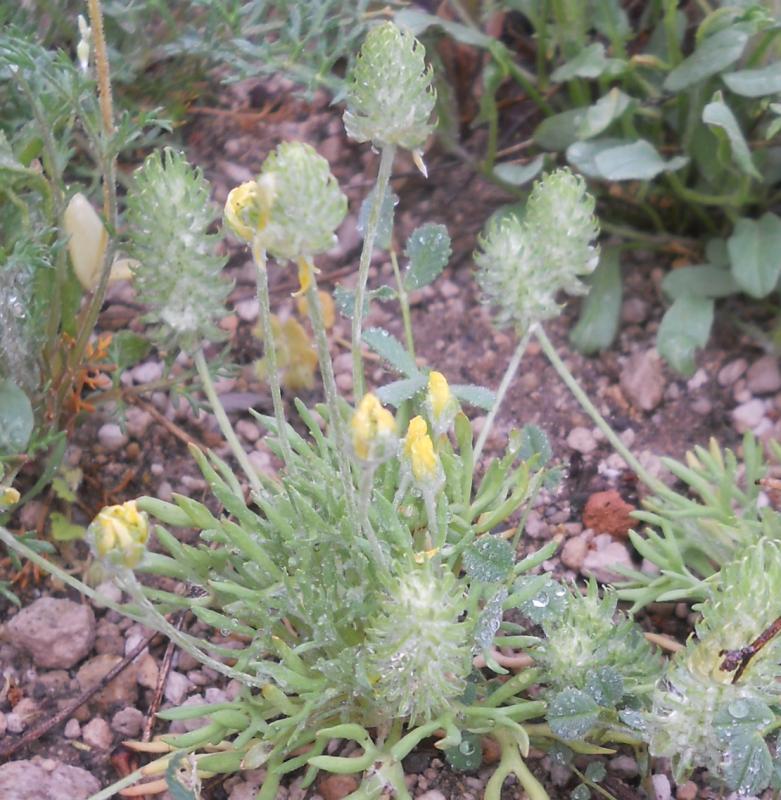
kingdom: Plantae
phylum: Tracheophyta
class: Magnoliopsida
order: Ranunculales
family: Ranunculaceae
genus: Ceratocephala
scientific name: Ceratocephala falcata
